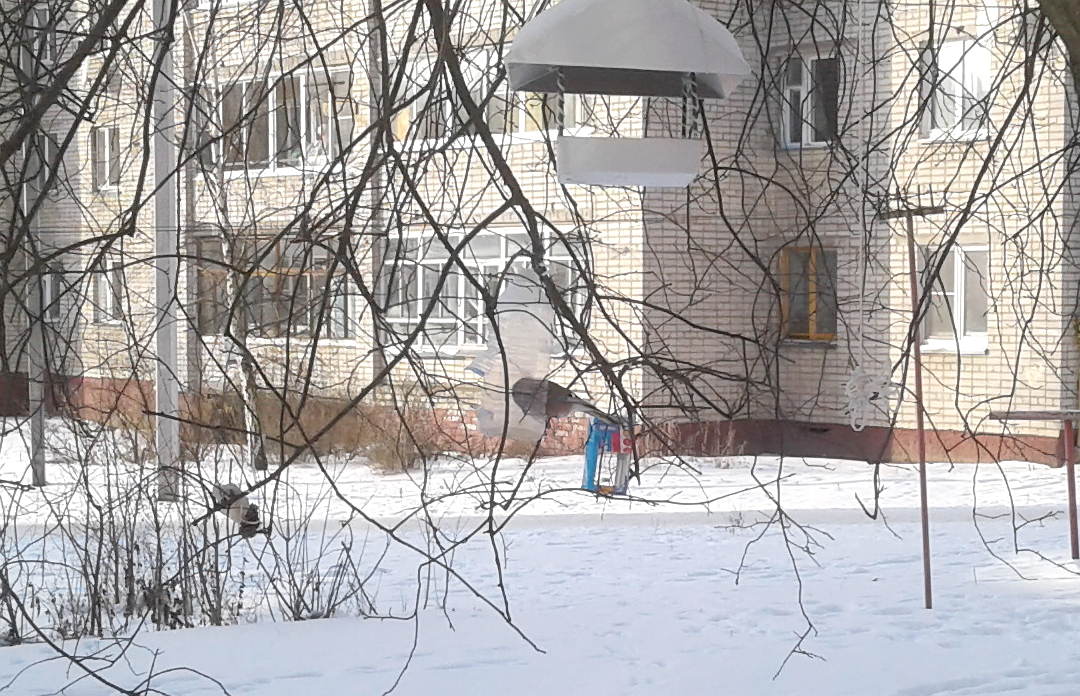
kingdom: Animalia
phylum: Chordata
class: Aves
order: Passeriformes
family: Corvidae
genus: Garrulus
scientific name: Garrulus glandarius
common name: Eurasian jay
